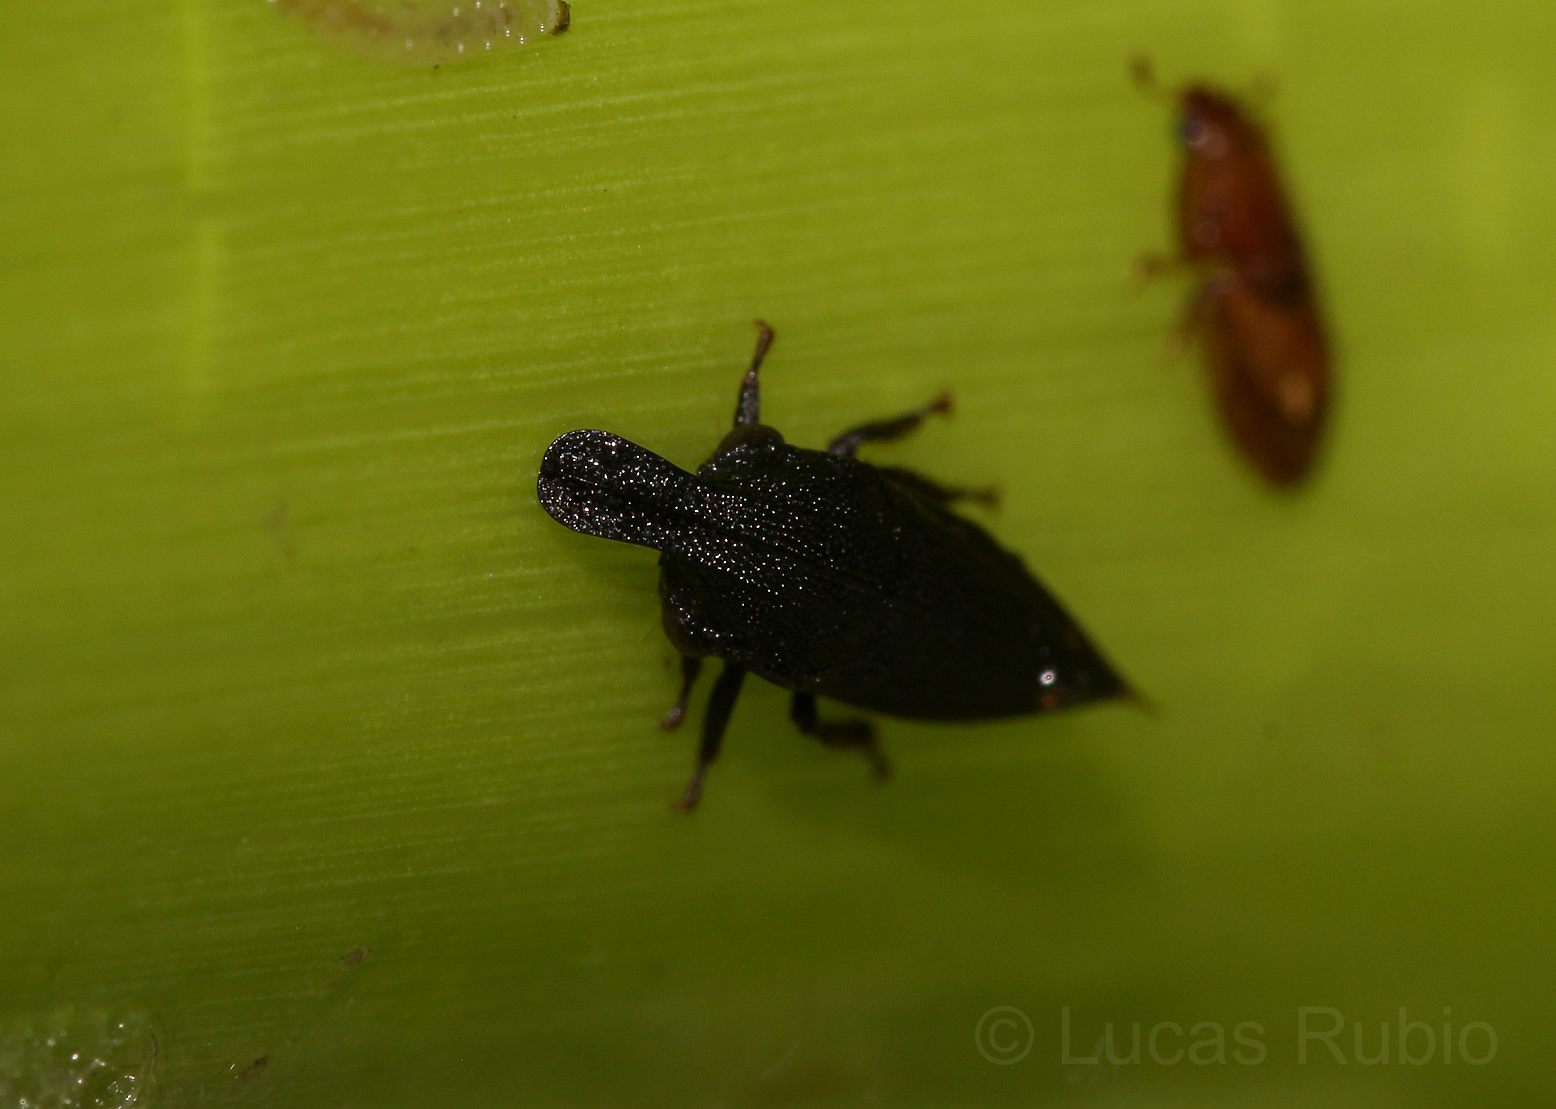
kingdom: Animalia
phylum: Arthropoda
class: Insecta
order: Hemiptera
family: Membracidae
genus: Kronides
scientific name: Kronides cochleata
